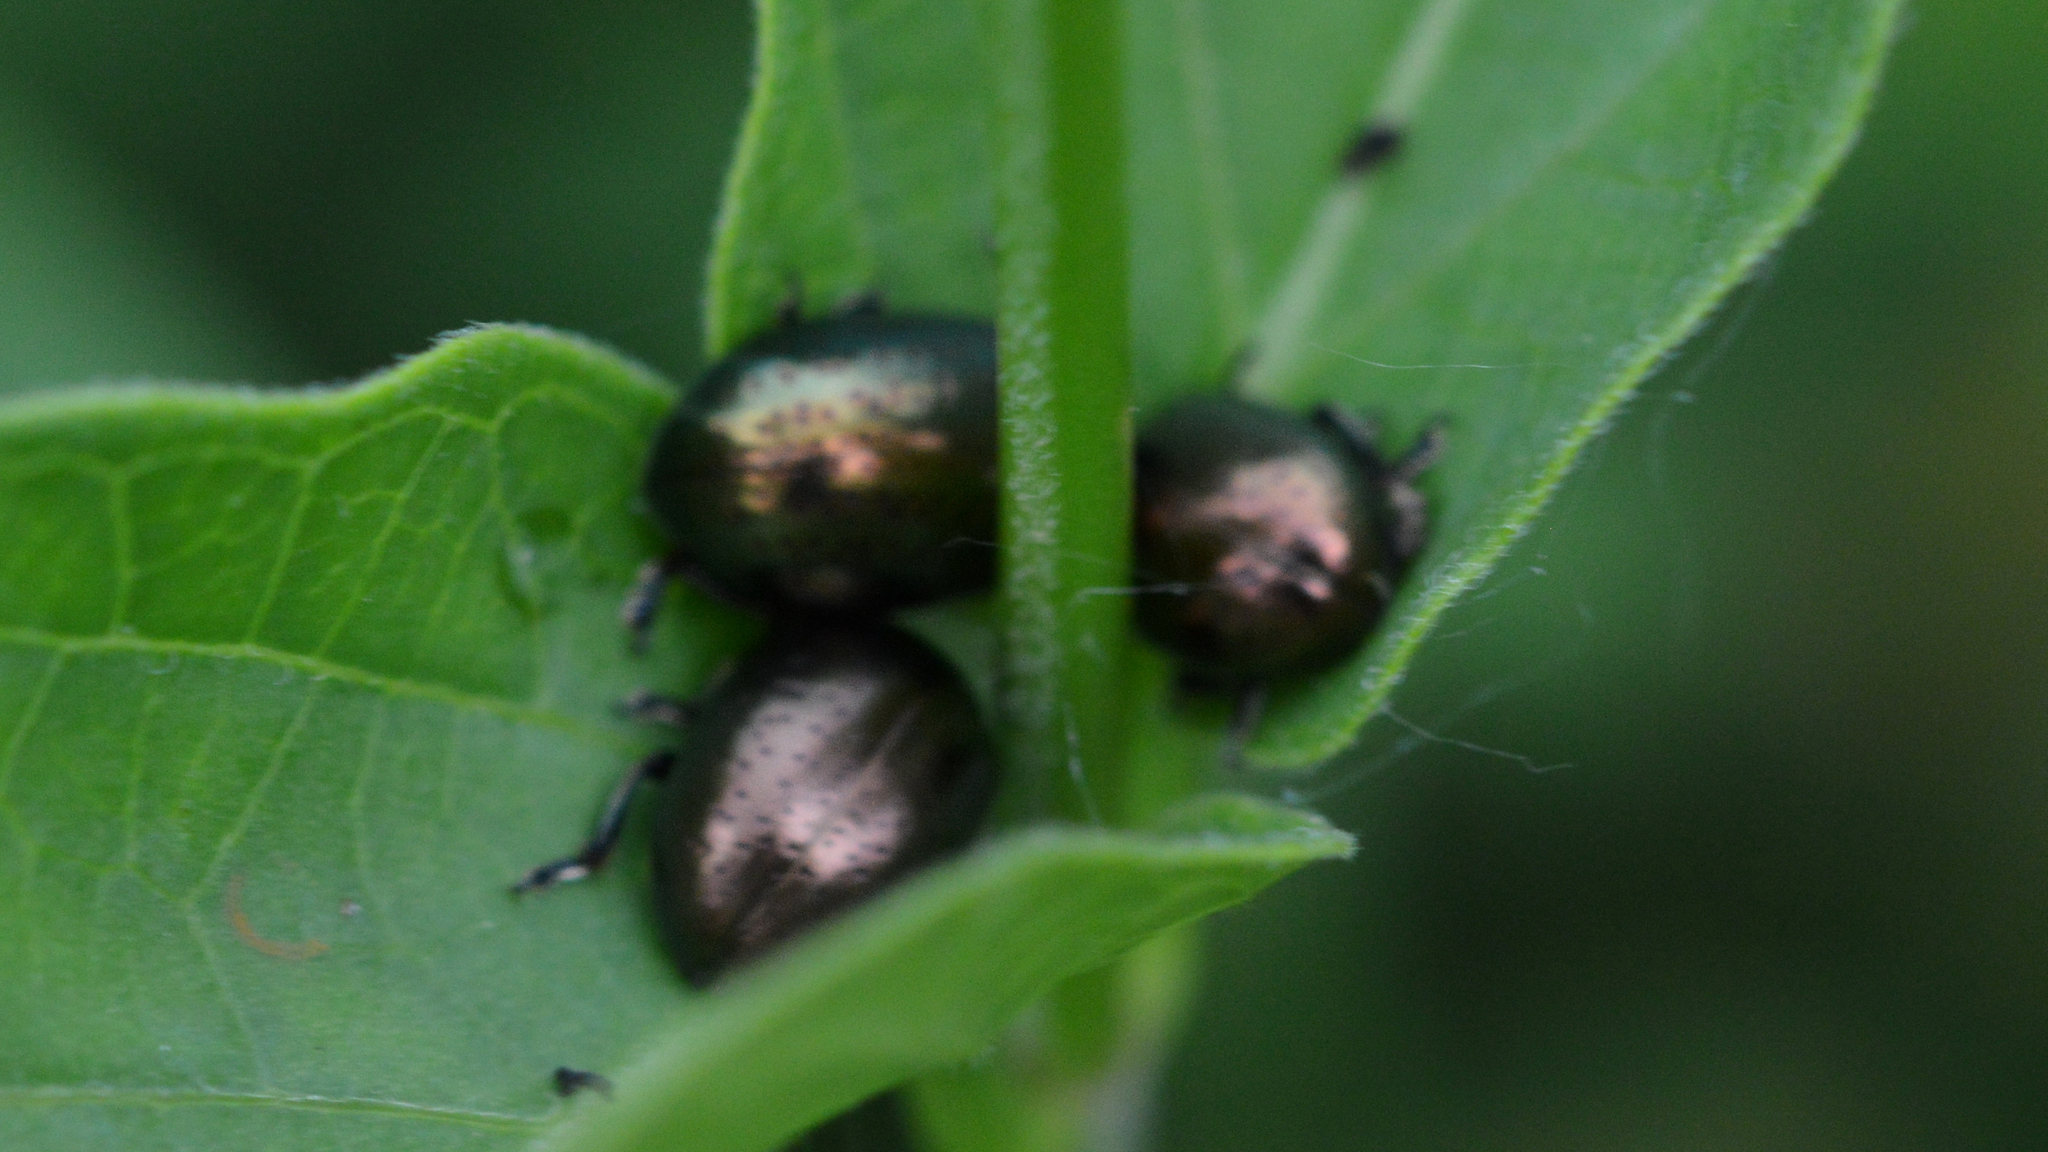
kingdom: Animalia
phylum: Arthropoda
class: Insecta
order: Coleoptera
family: Chrysomelidae
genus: Chrysolina
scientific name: Chrysolina hyperici
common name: St. johnswort beetle
